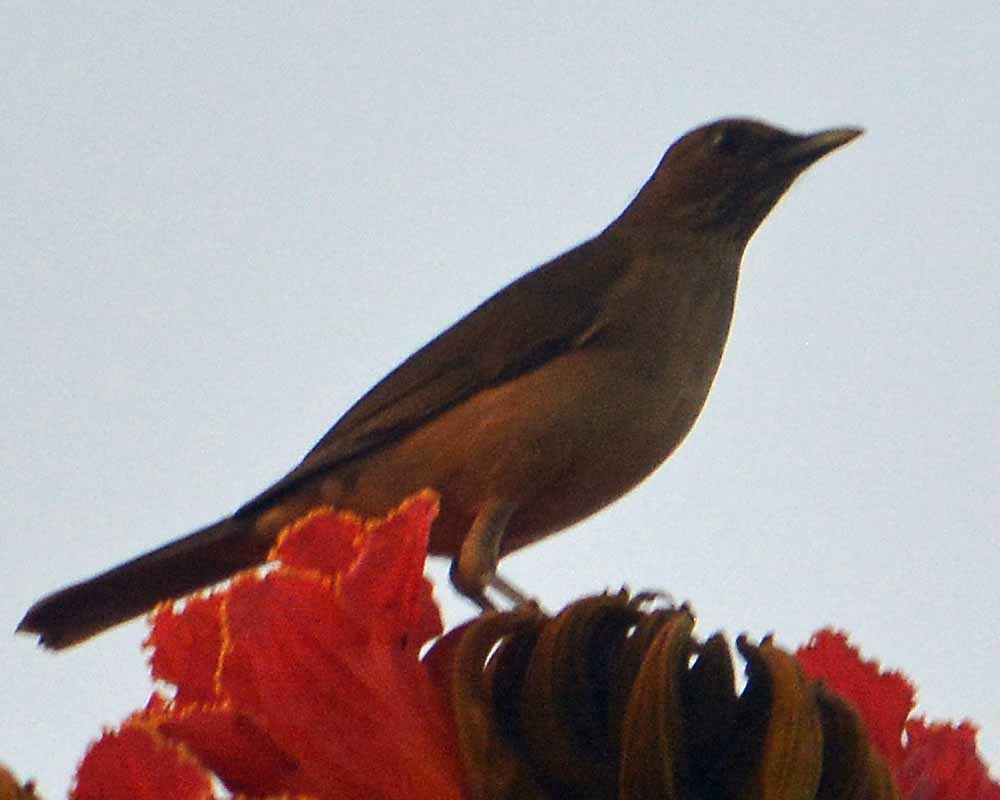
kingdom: Animalia
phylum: Chordata
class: Aves
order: Passeriformes
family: Turdidae
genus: Turdus
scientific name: Turdus grayi
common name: Clay-colored thrush
